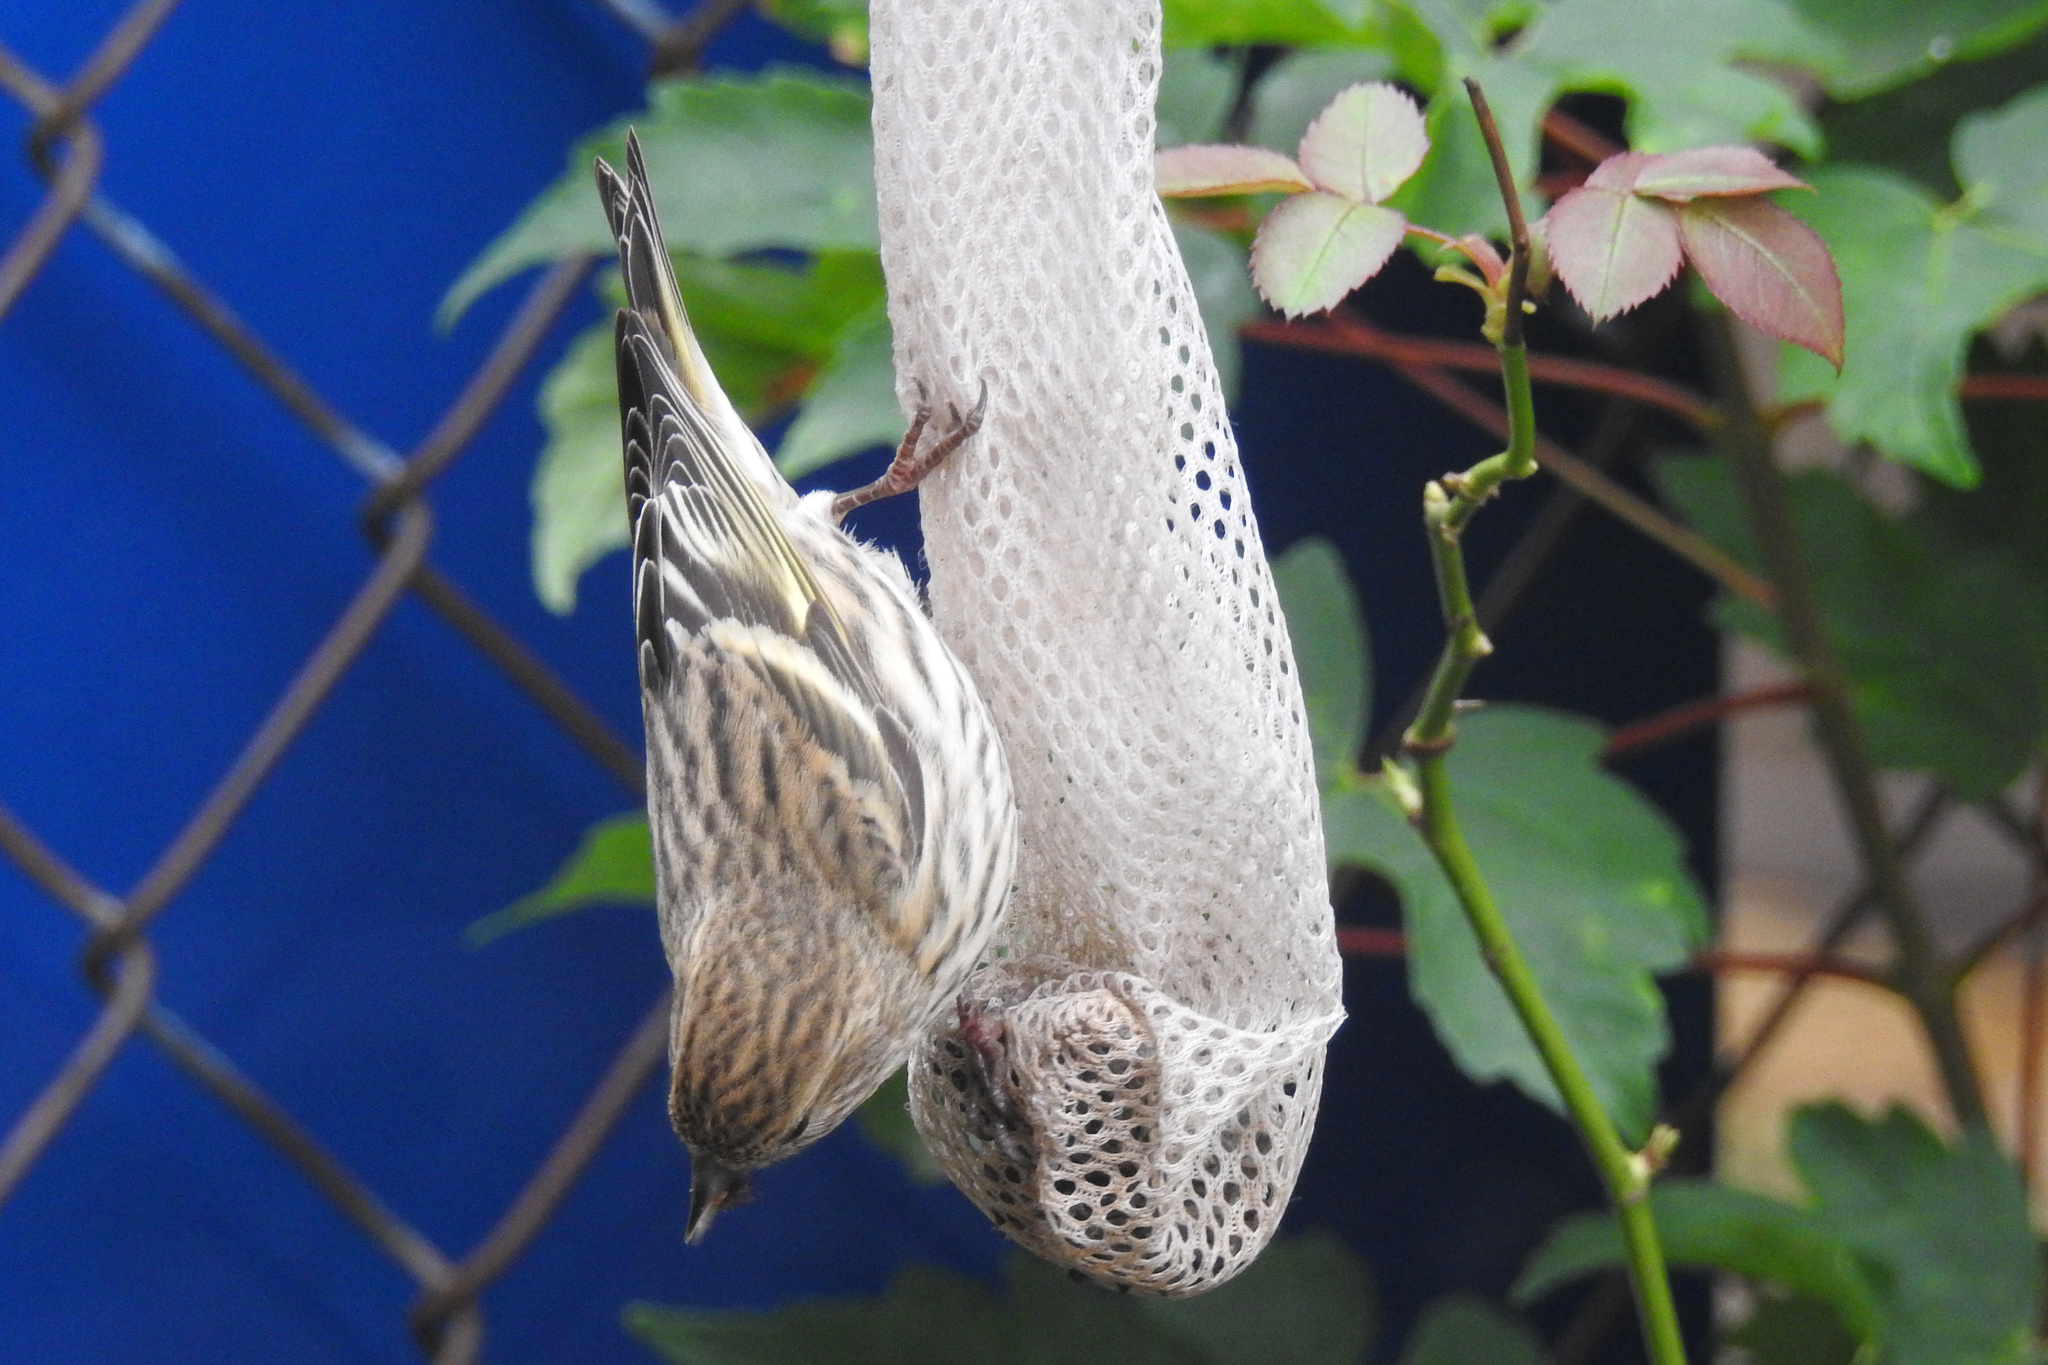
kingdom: Animalia
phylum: Chordata
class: Aves
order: Passeriformes
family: Fringillidae
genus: Spinus
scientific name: Spinus pinus
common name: Pine siskin
